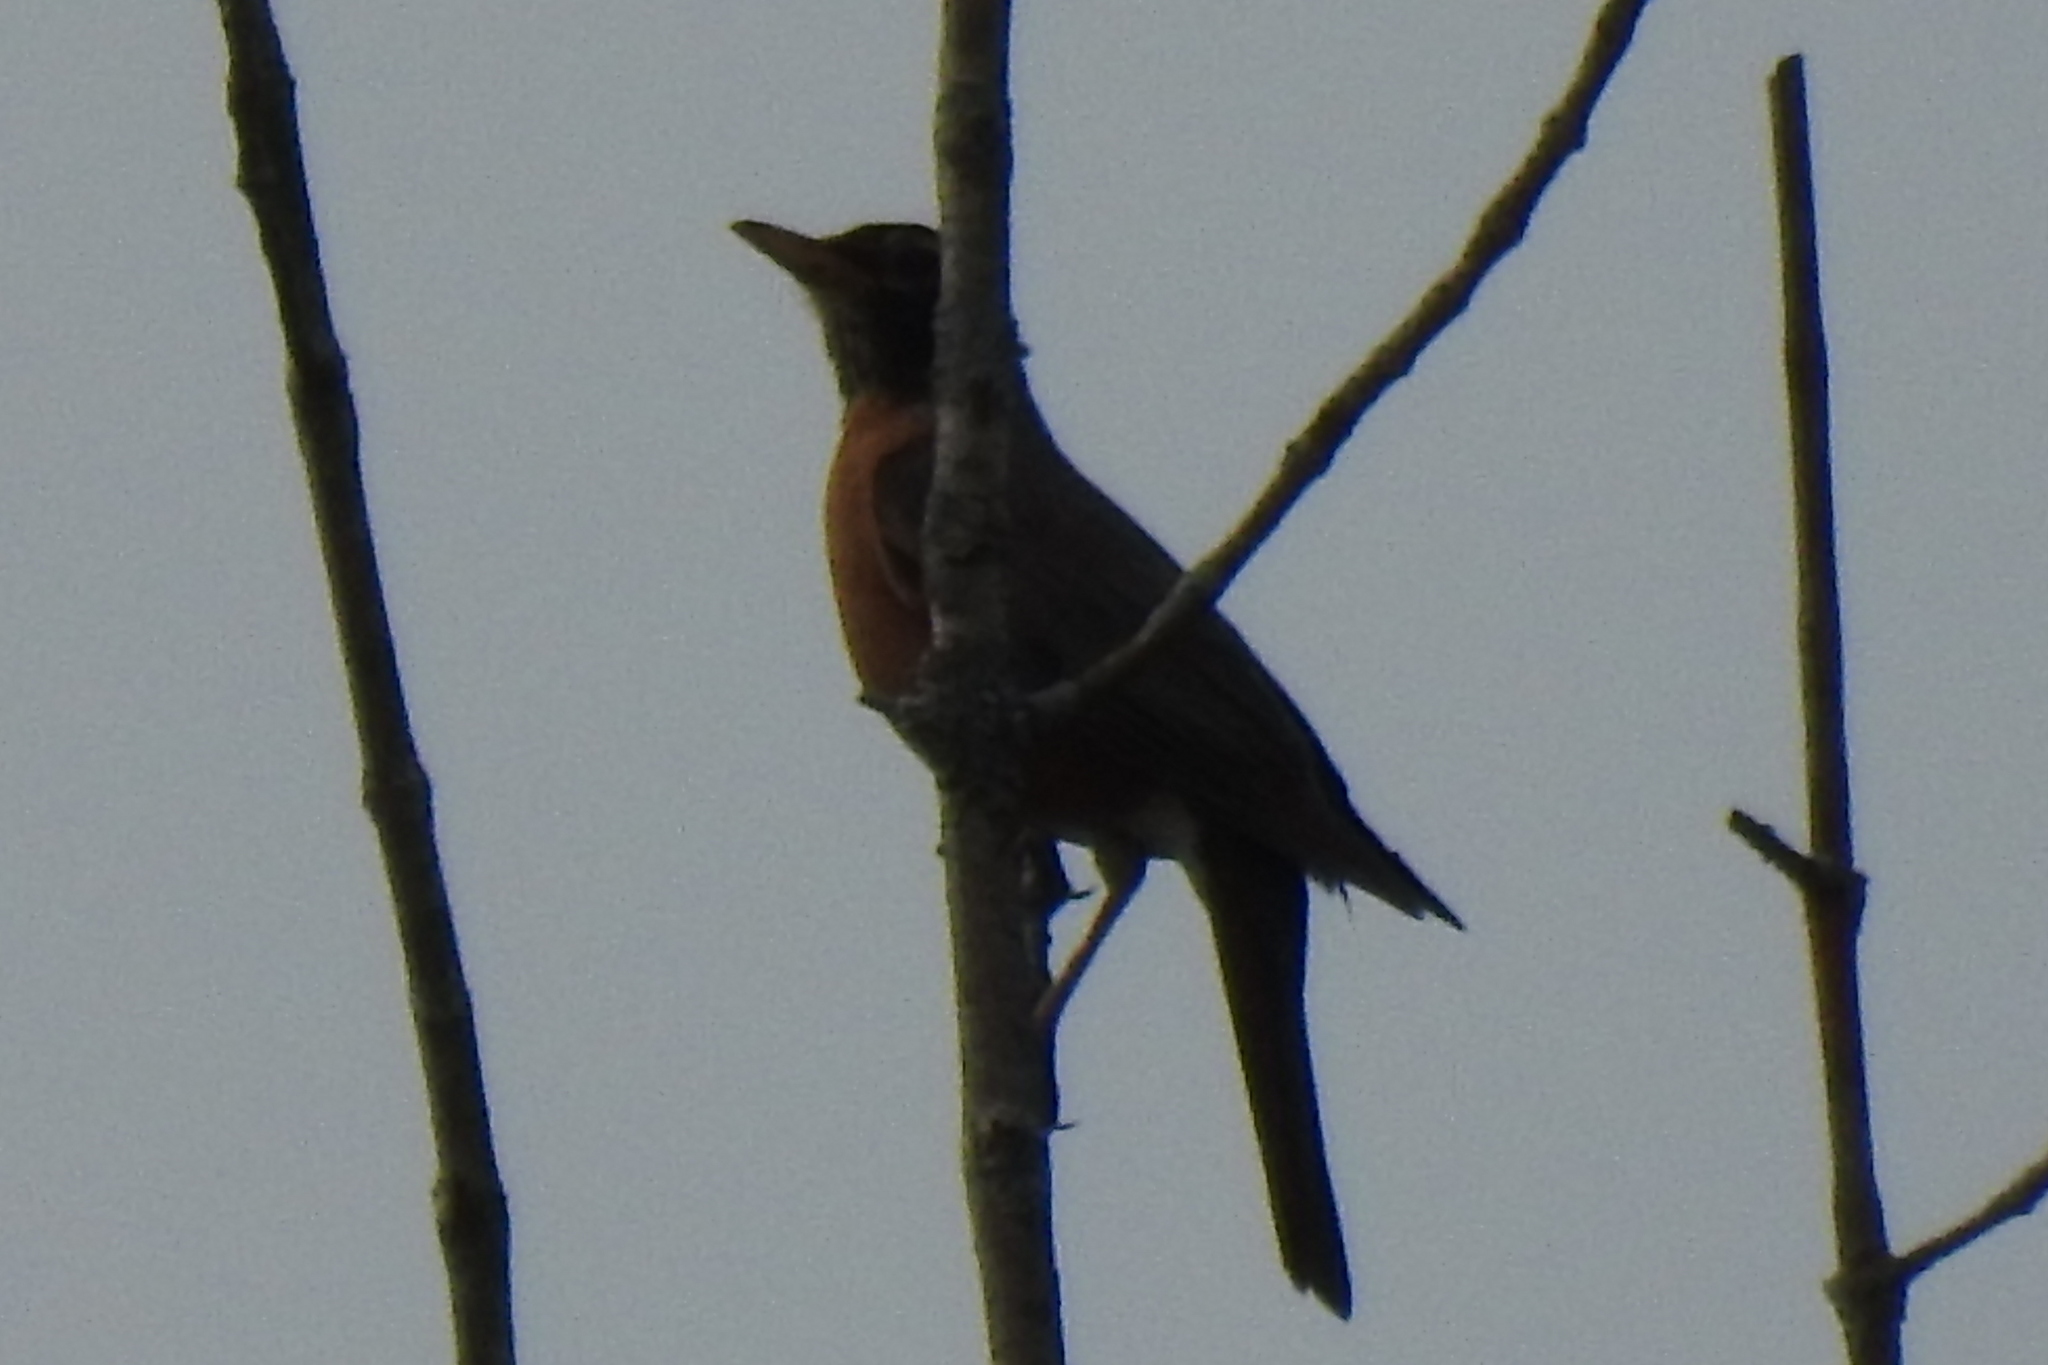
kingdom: Animalia
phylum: Chordata
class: Aves
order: Passeriformes
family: Turdidae
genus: Turdus
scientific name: Turdus migratorius
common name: American robin
